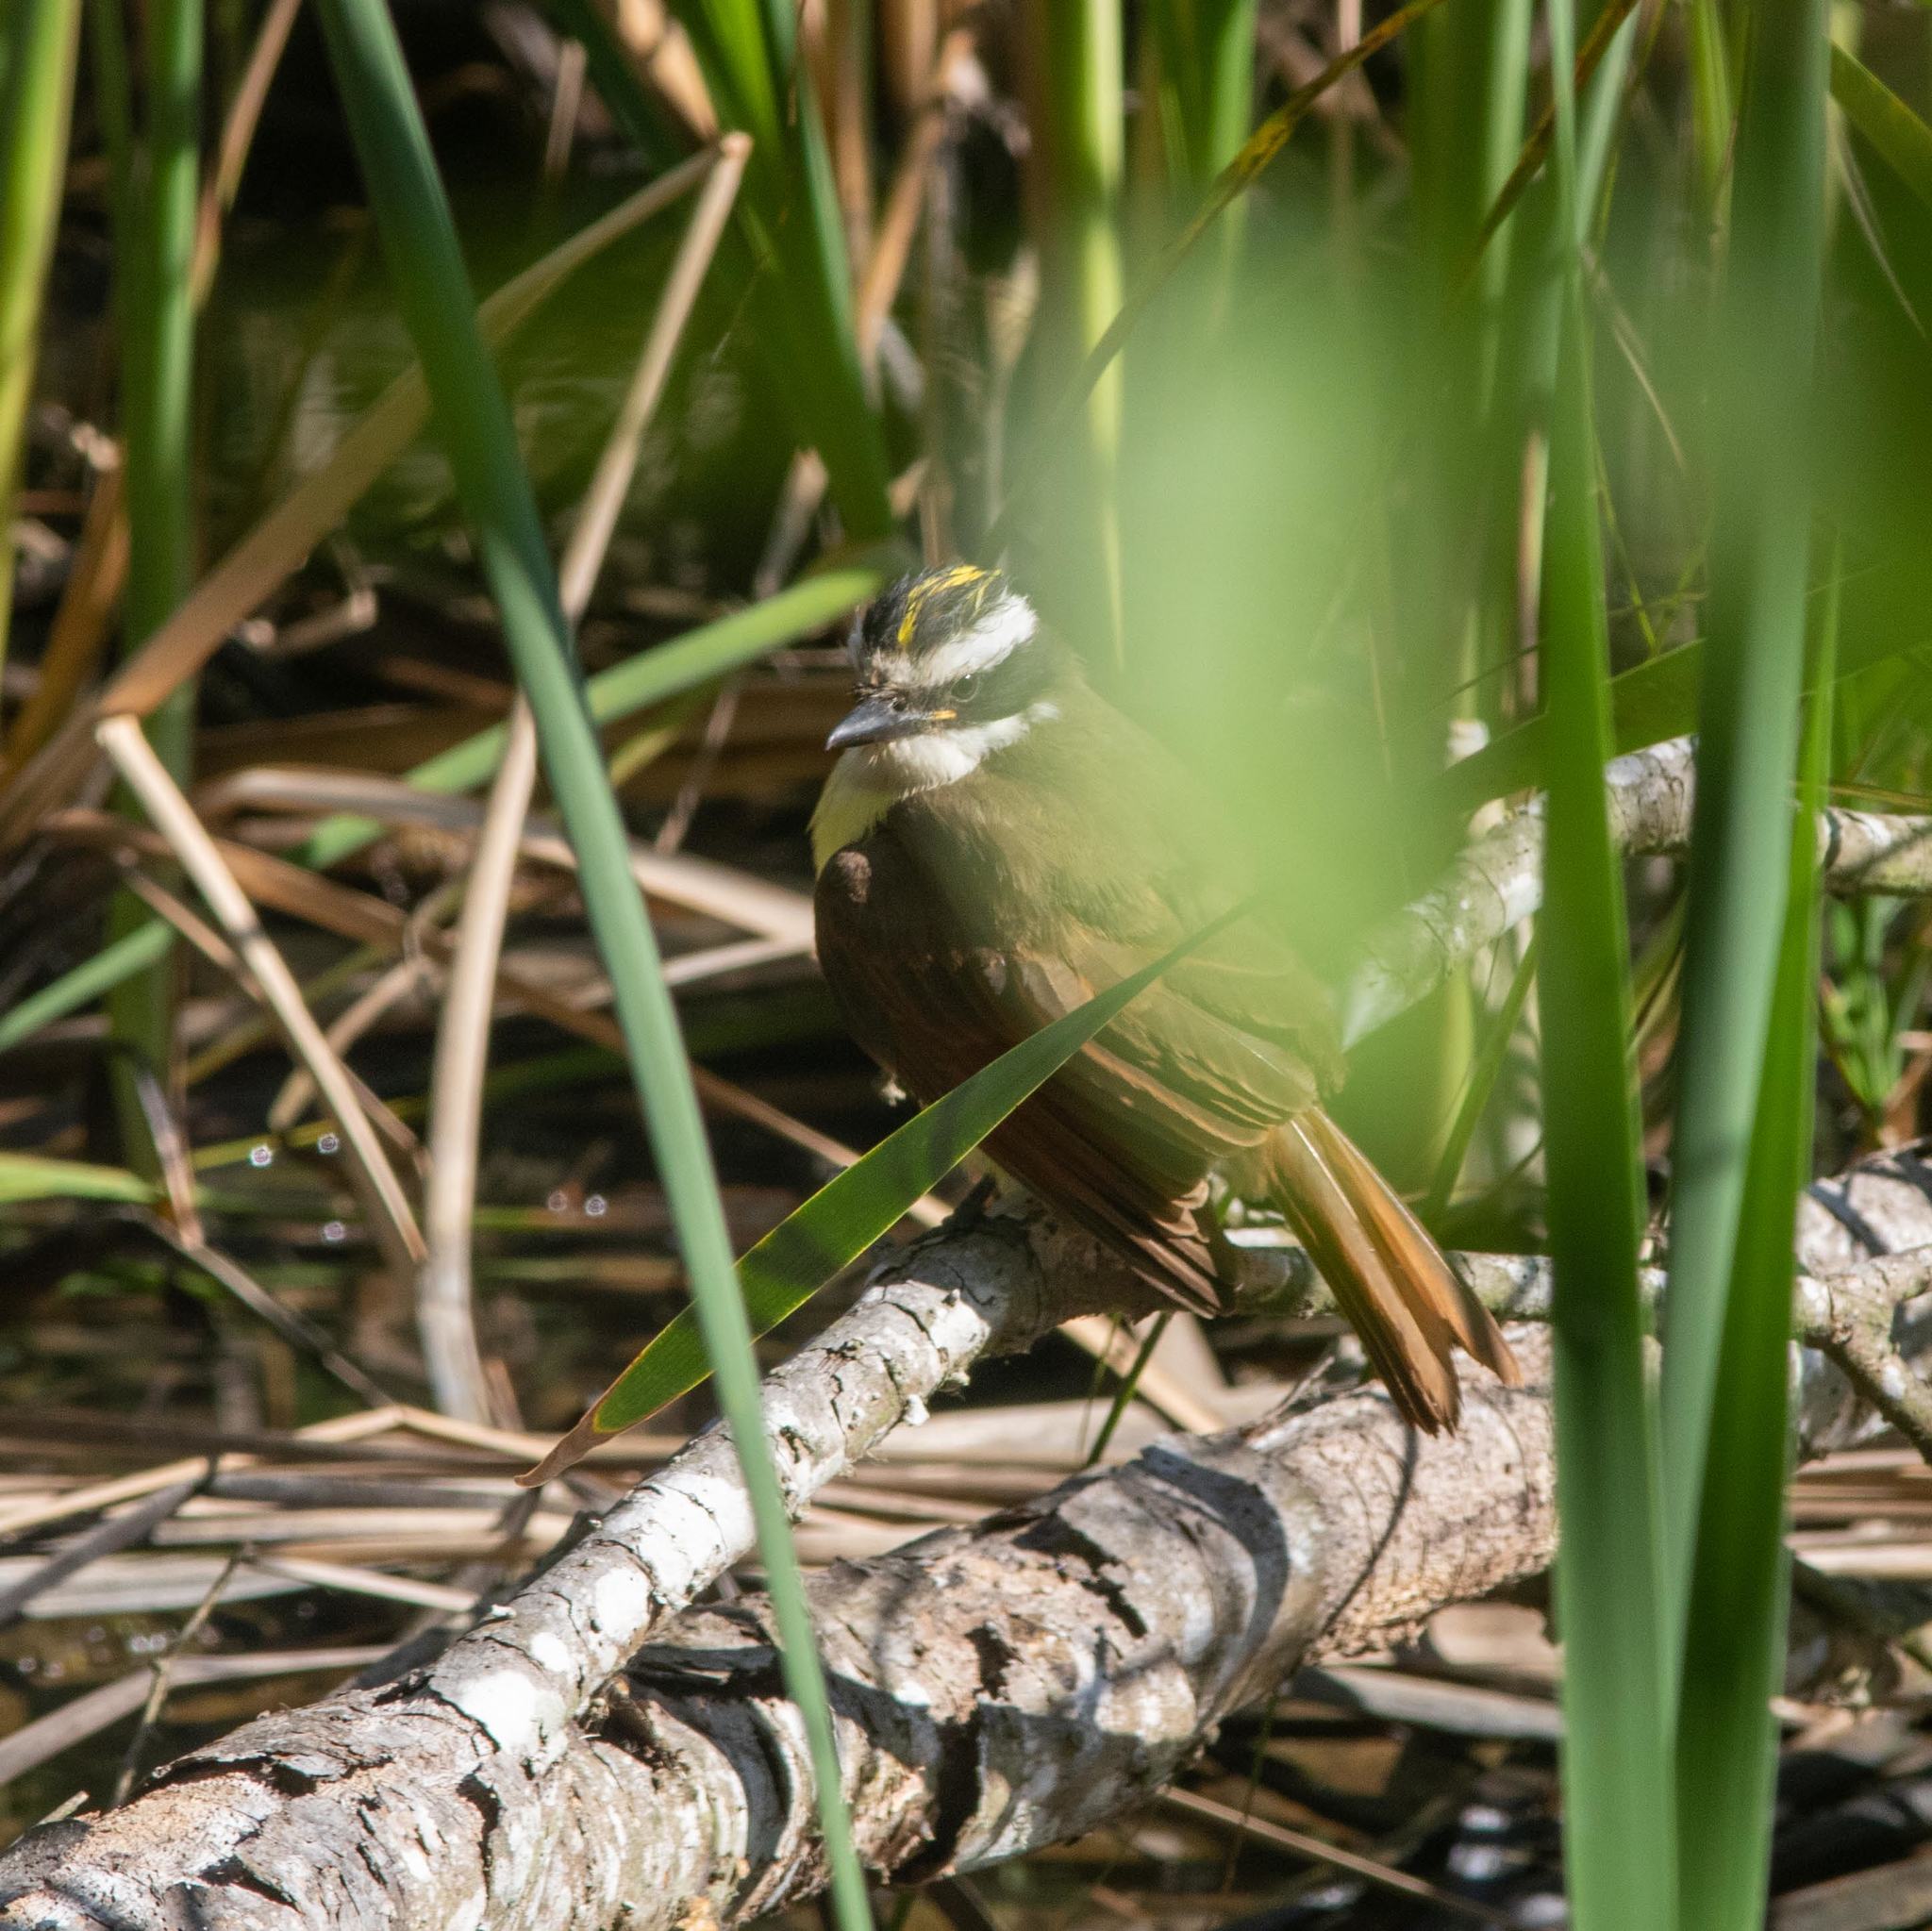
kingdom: Animalia
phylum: Chordata
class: Aves
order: Passeriformes
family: Tyrannidae
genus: Pitangus
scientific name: Pitangus sulphuratus
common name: Great kiskadee
